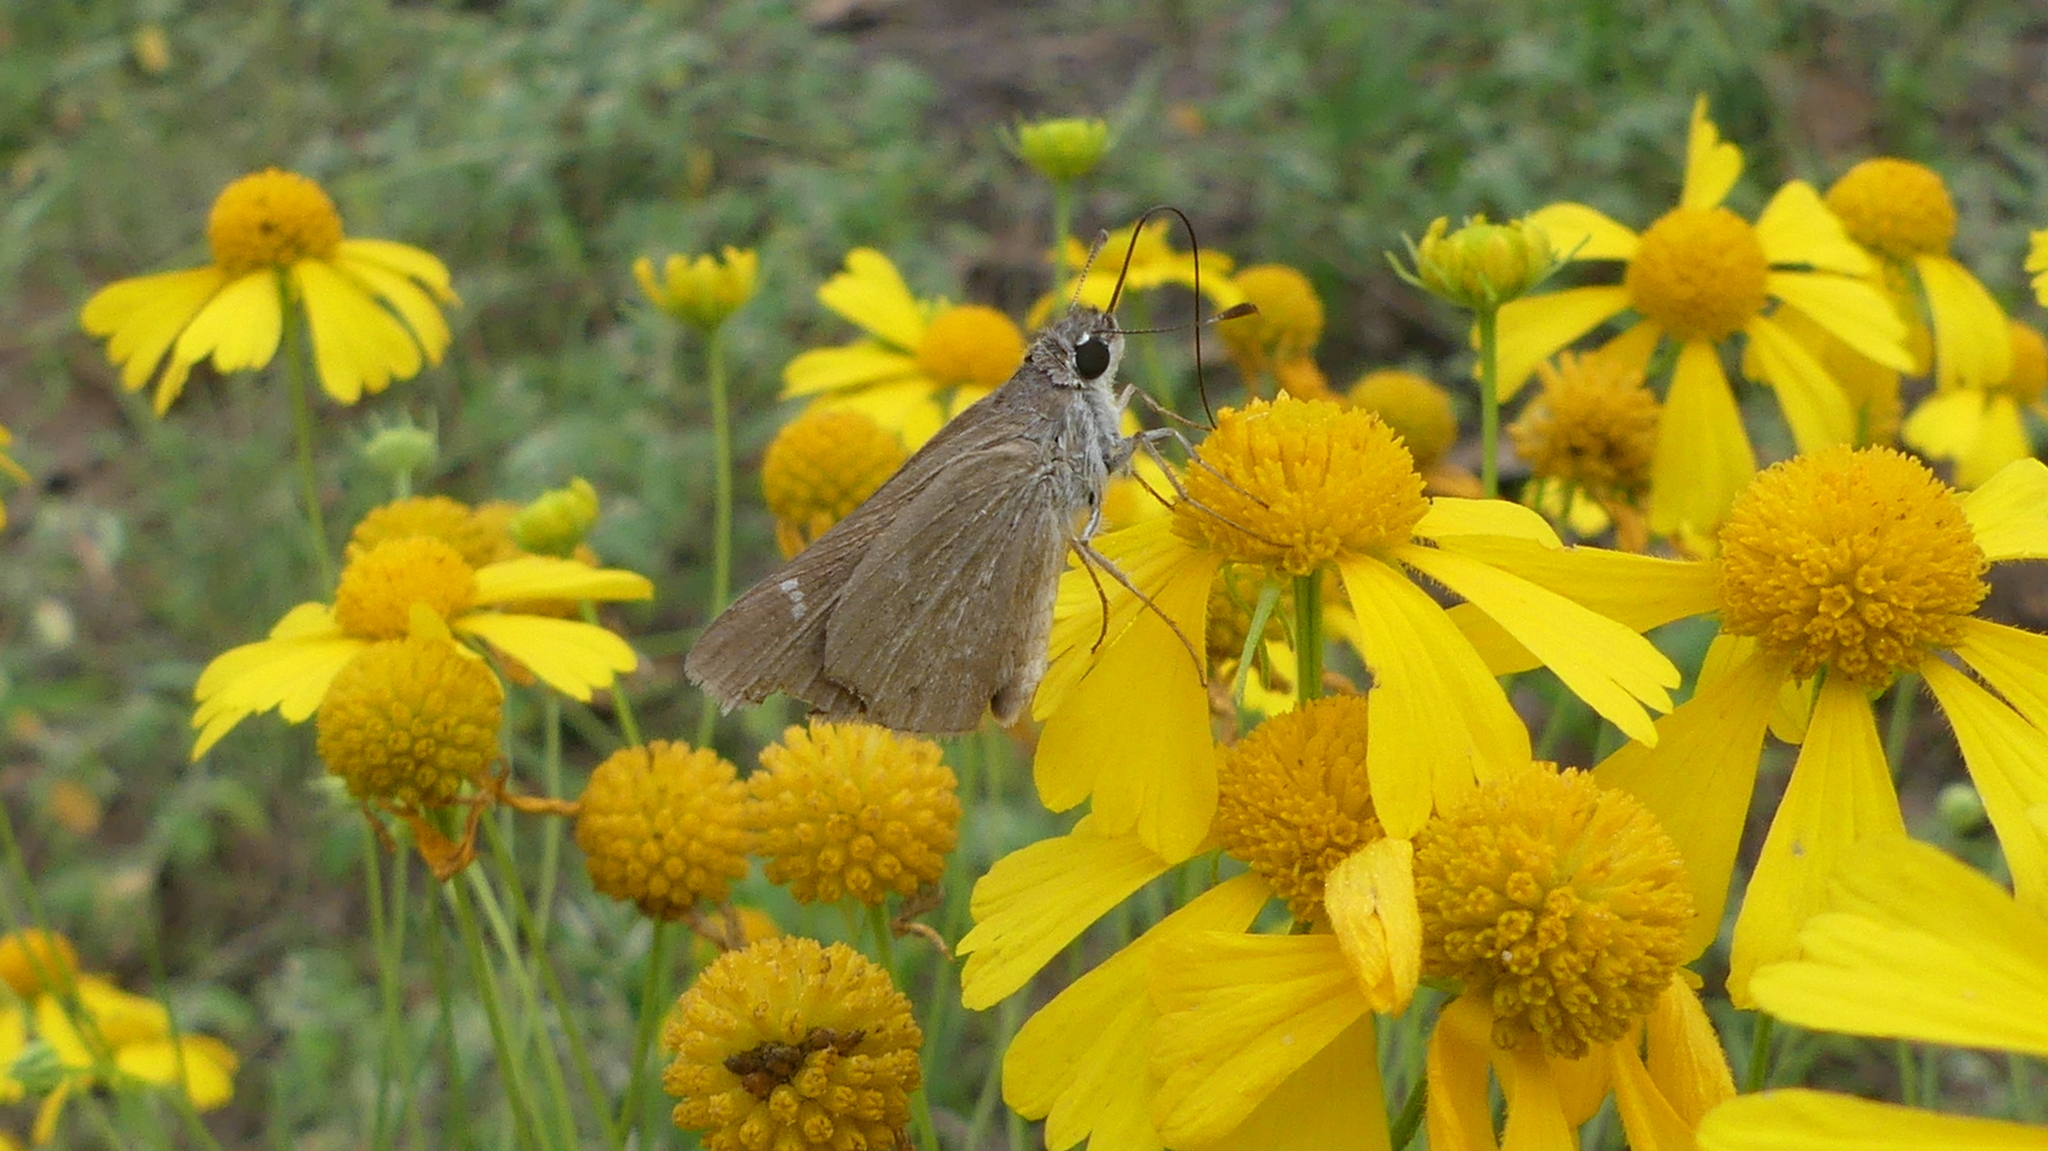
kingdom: Animalia
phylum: Arthropoda
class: Insecta
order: Lepidoptera
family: Hesperiidae
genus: Lerodea
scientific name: Lerodea eufala
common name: Eufala skipper
